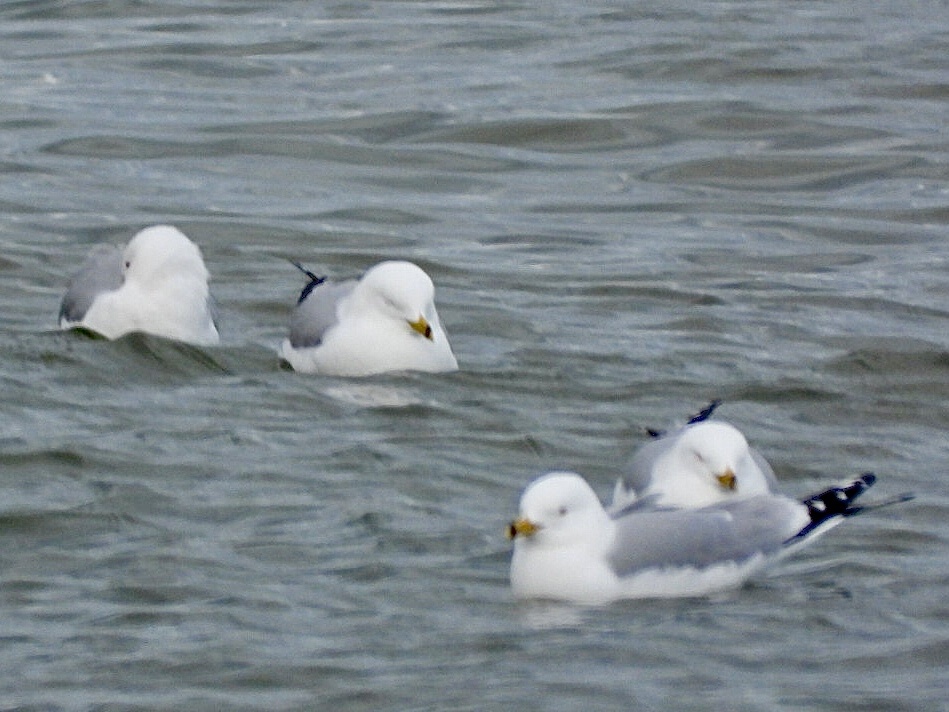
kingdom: Animalia
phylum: Chordata
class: Aves
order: Charadriiformes
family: Laridae
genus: Larus
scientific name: Larus delawarensis
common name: Ring-billed gull
